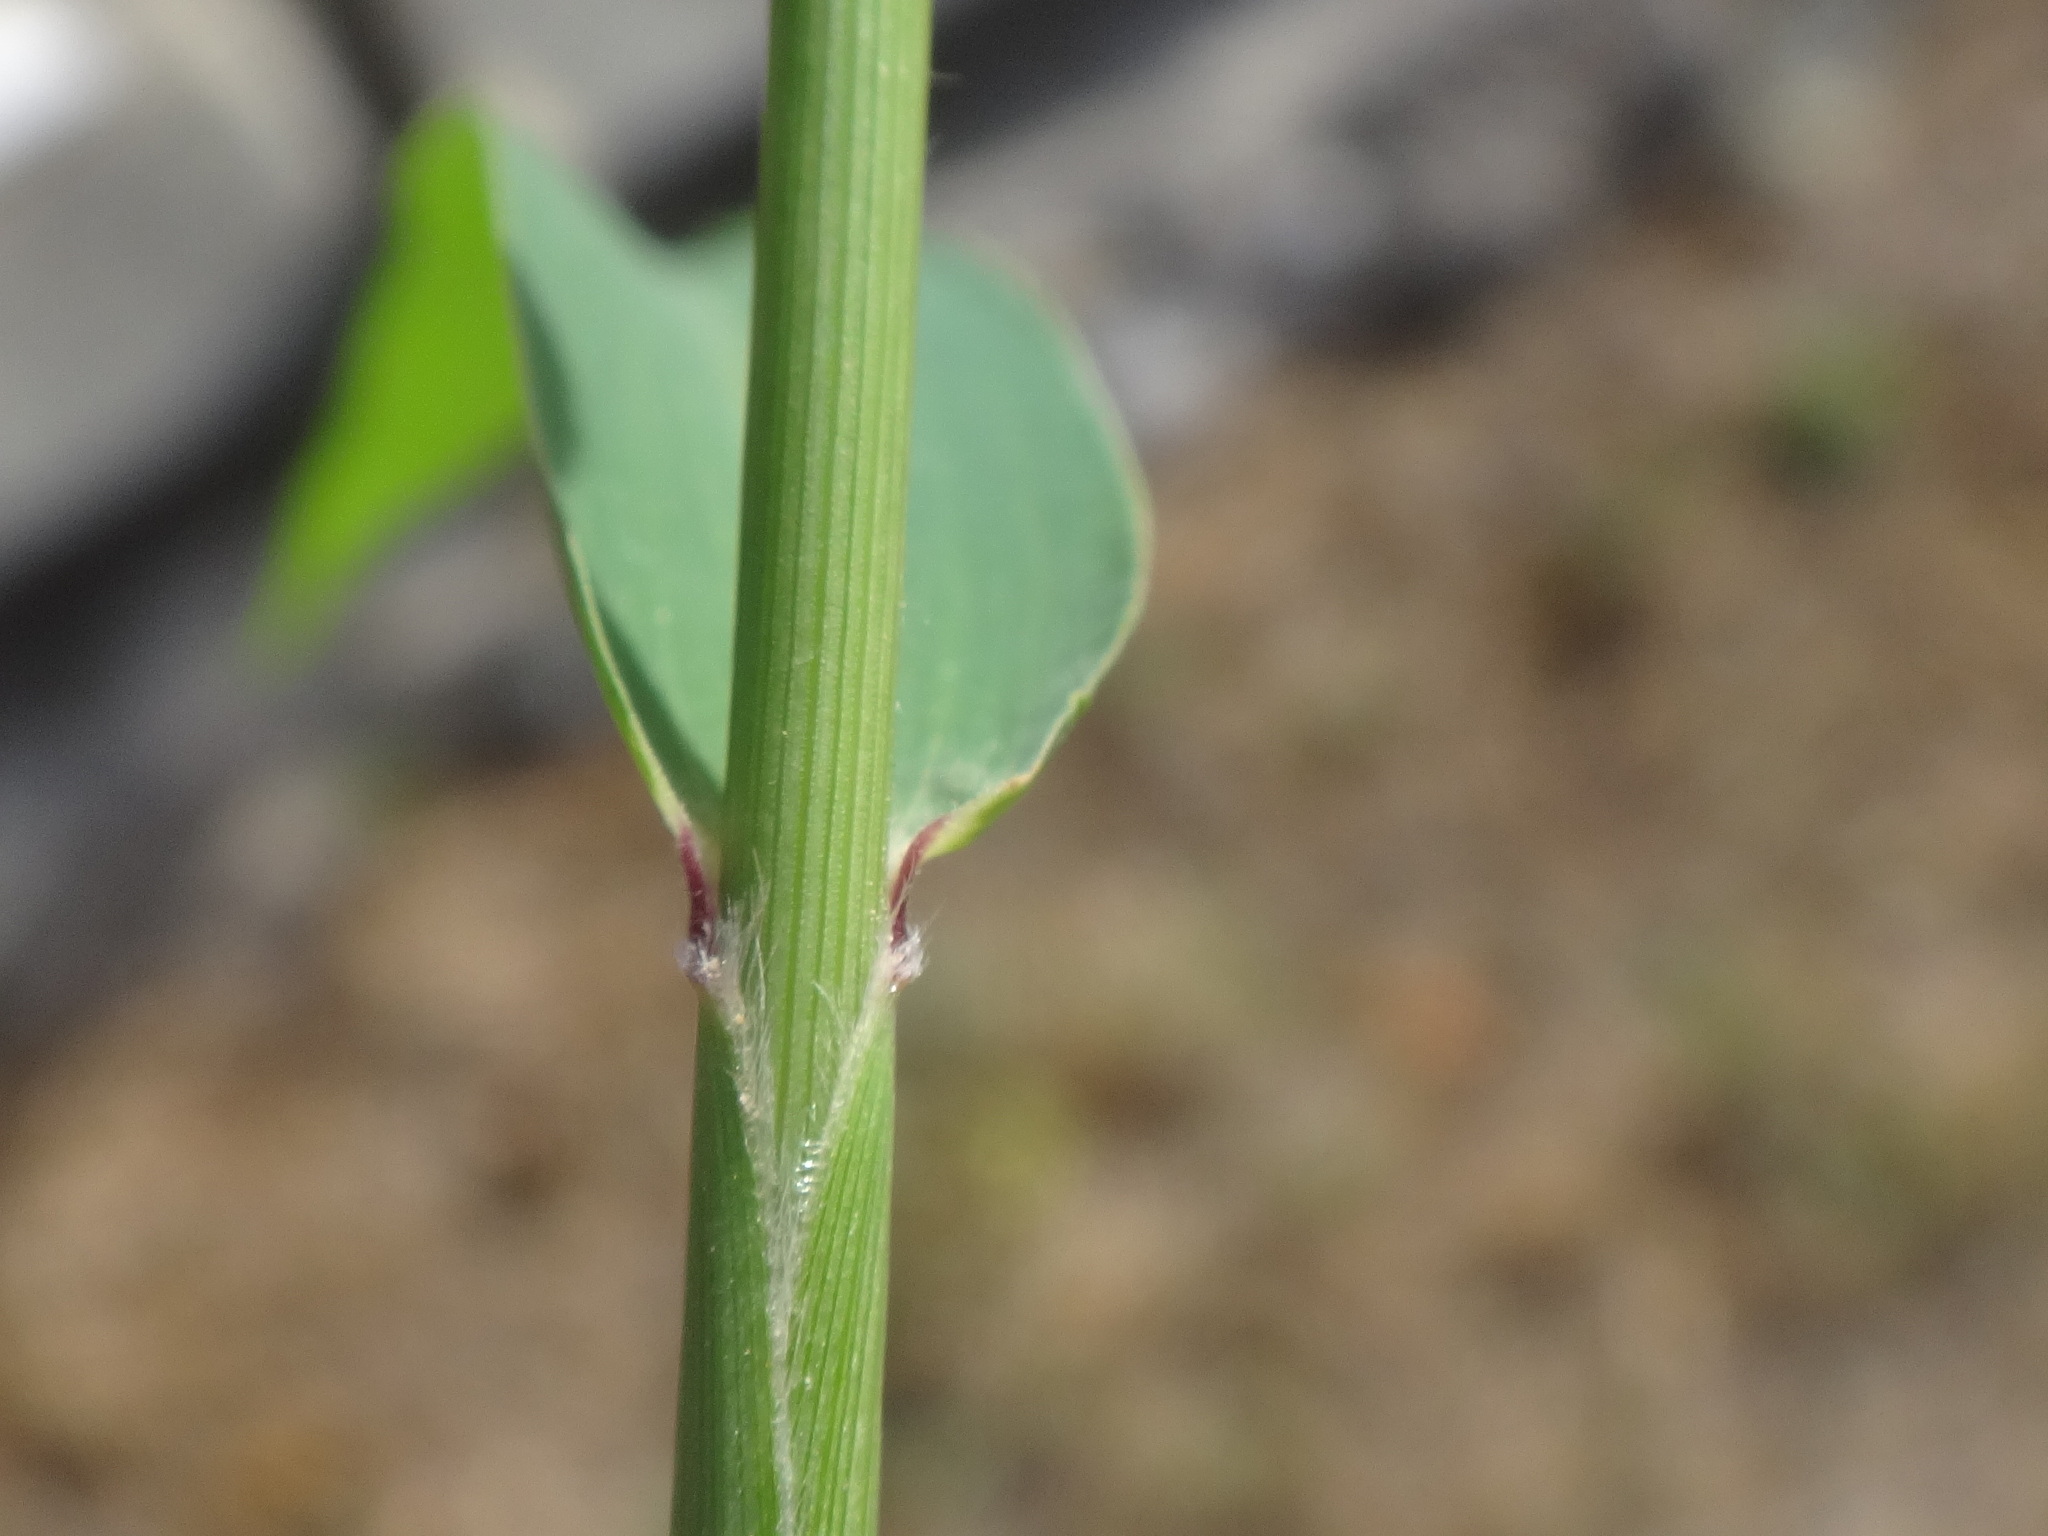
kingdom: Plantae
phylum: Tracheophyta
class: Liliopsida
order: Poales
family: Poaceae
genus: Setaria
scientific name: Setaria viridis
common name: Green bristlegrass
